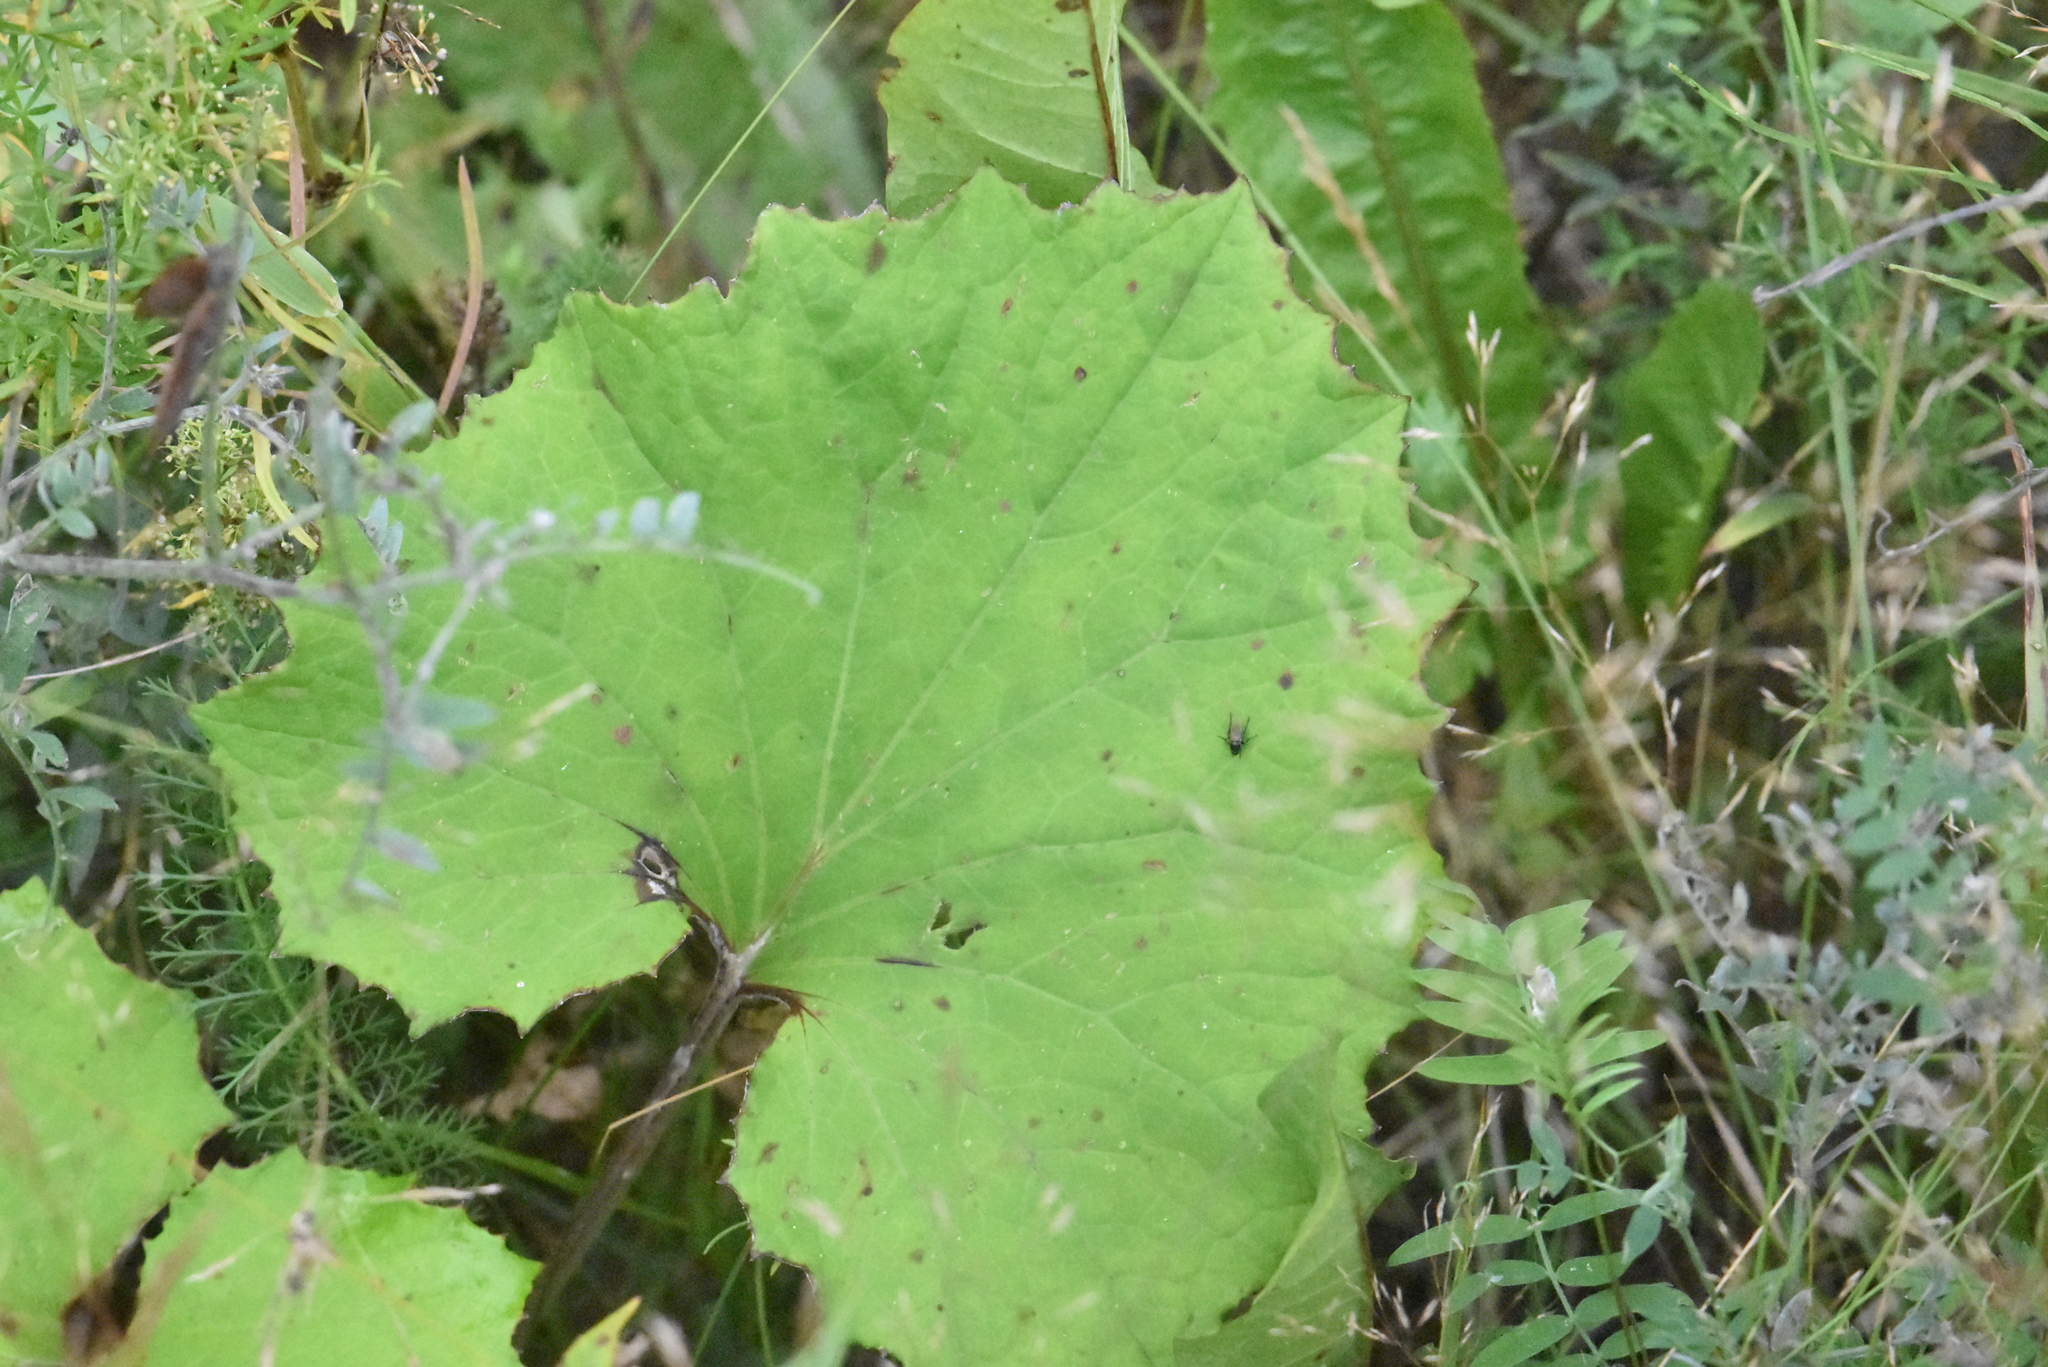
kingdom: Plantae
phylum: Tracheophyta
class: Magnoliopsida
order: Asterales
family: Asteraceae
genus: Tussilago
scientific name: Tussilago farfara
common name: Coltsfoot
